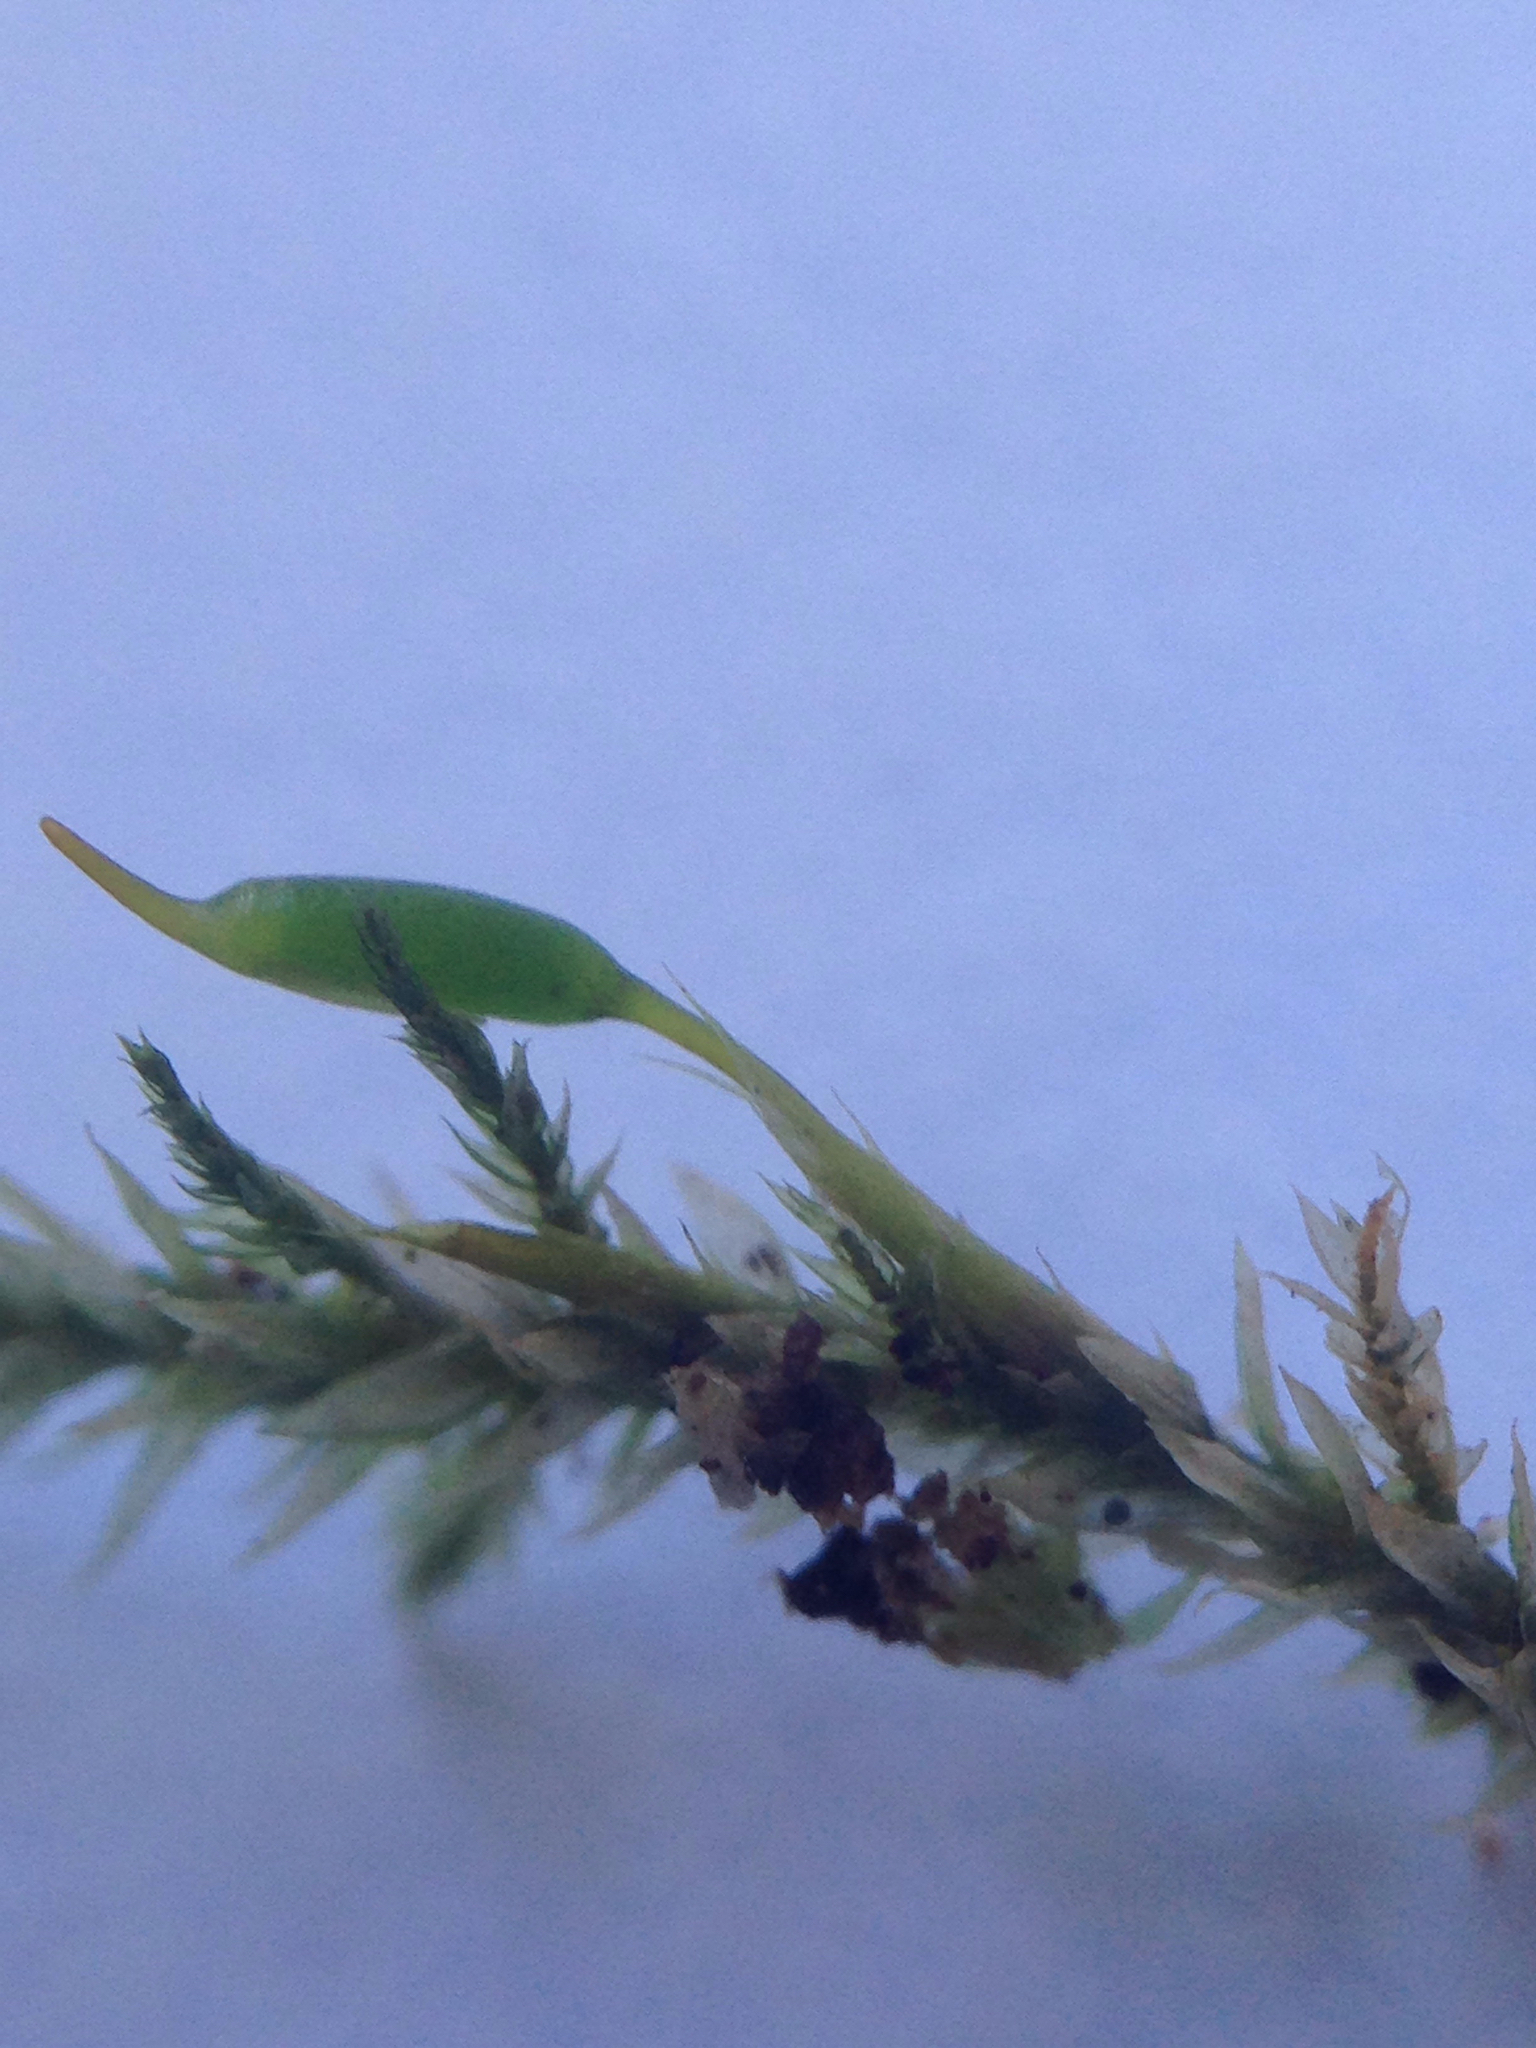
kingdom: Plantae
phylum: Bryophyta
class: Bryopsida
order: Hypnales
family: Neckeraceae
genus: Neckera
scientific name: Neckera californica
